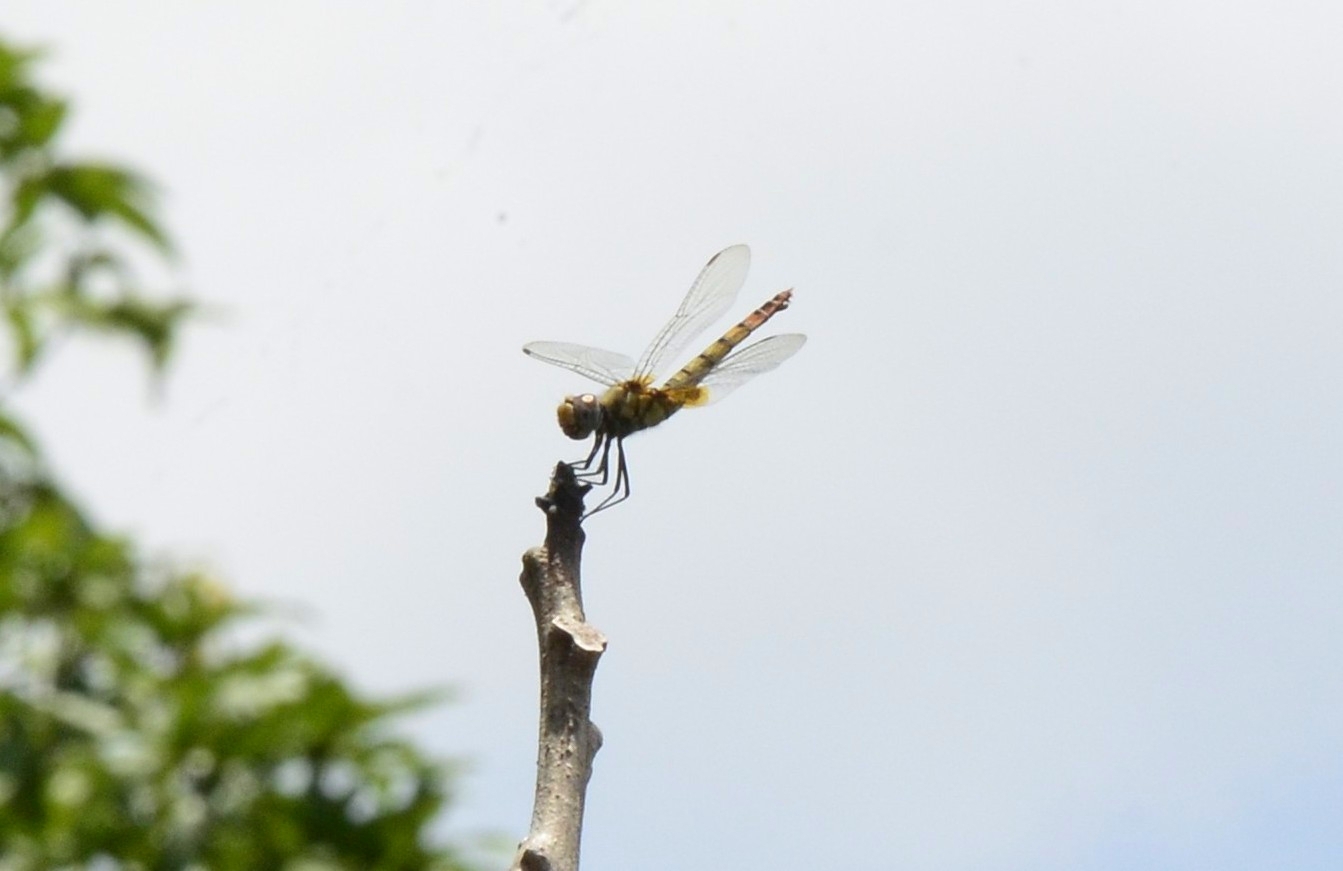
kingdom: Animalia
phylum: Arthropoda
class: Insecta
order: Odonata
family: Libellulidae
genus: Urothemis
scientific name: Urothemis signata
